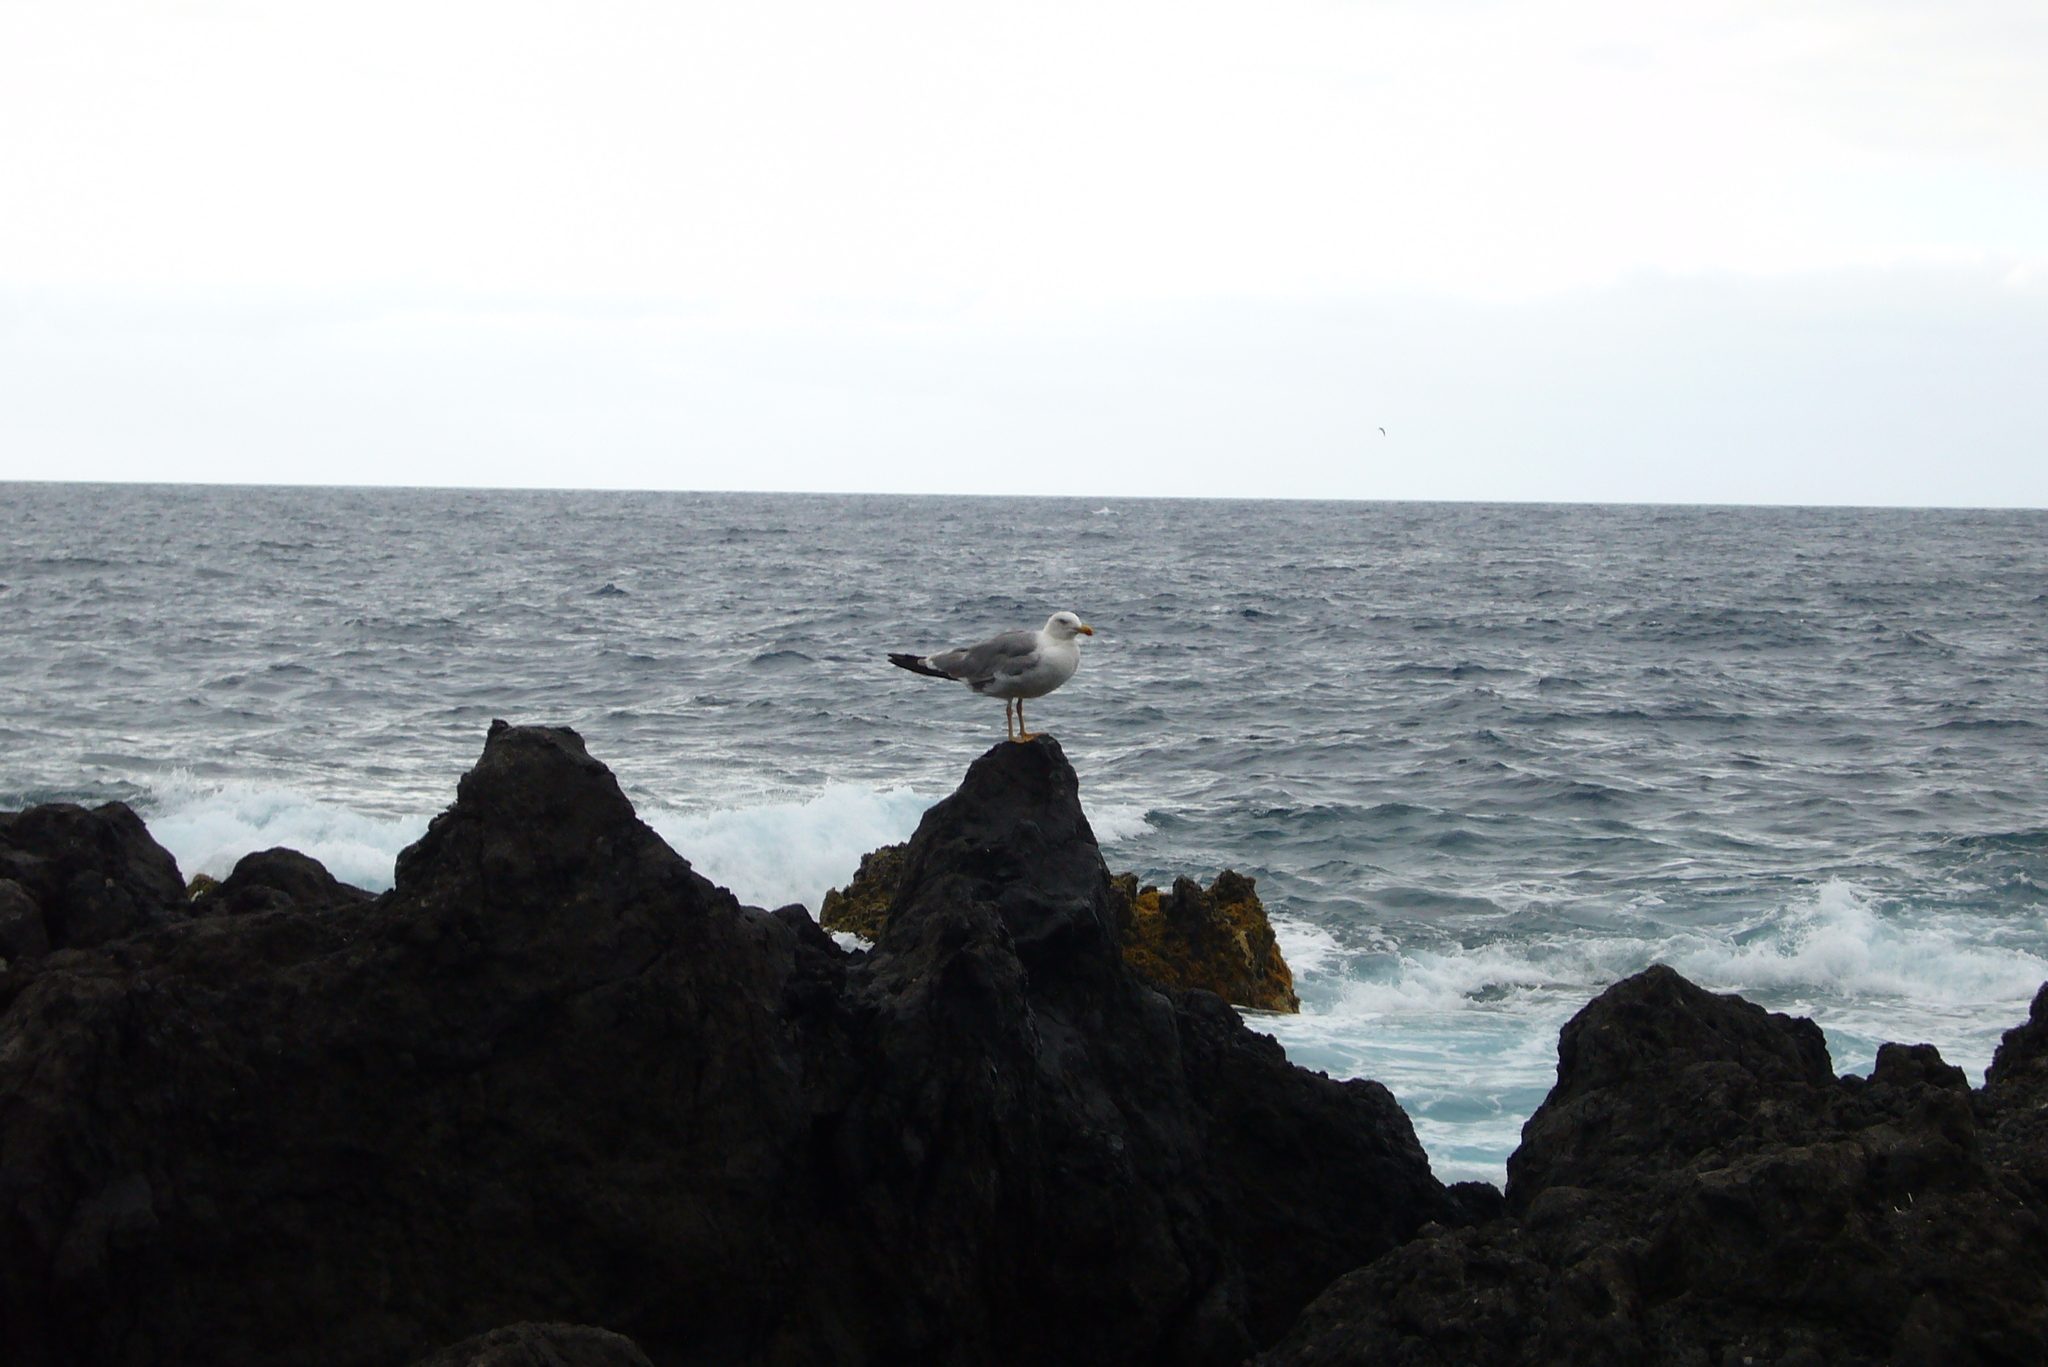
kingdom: Animalia
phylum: Chordata
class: Aves
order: Charadriiformes
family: Laridae
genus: Larus
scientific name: Larus michahellis
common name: Yellow-legged gull
